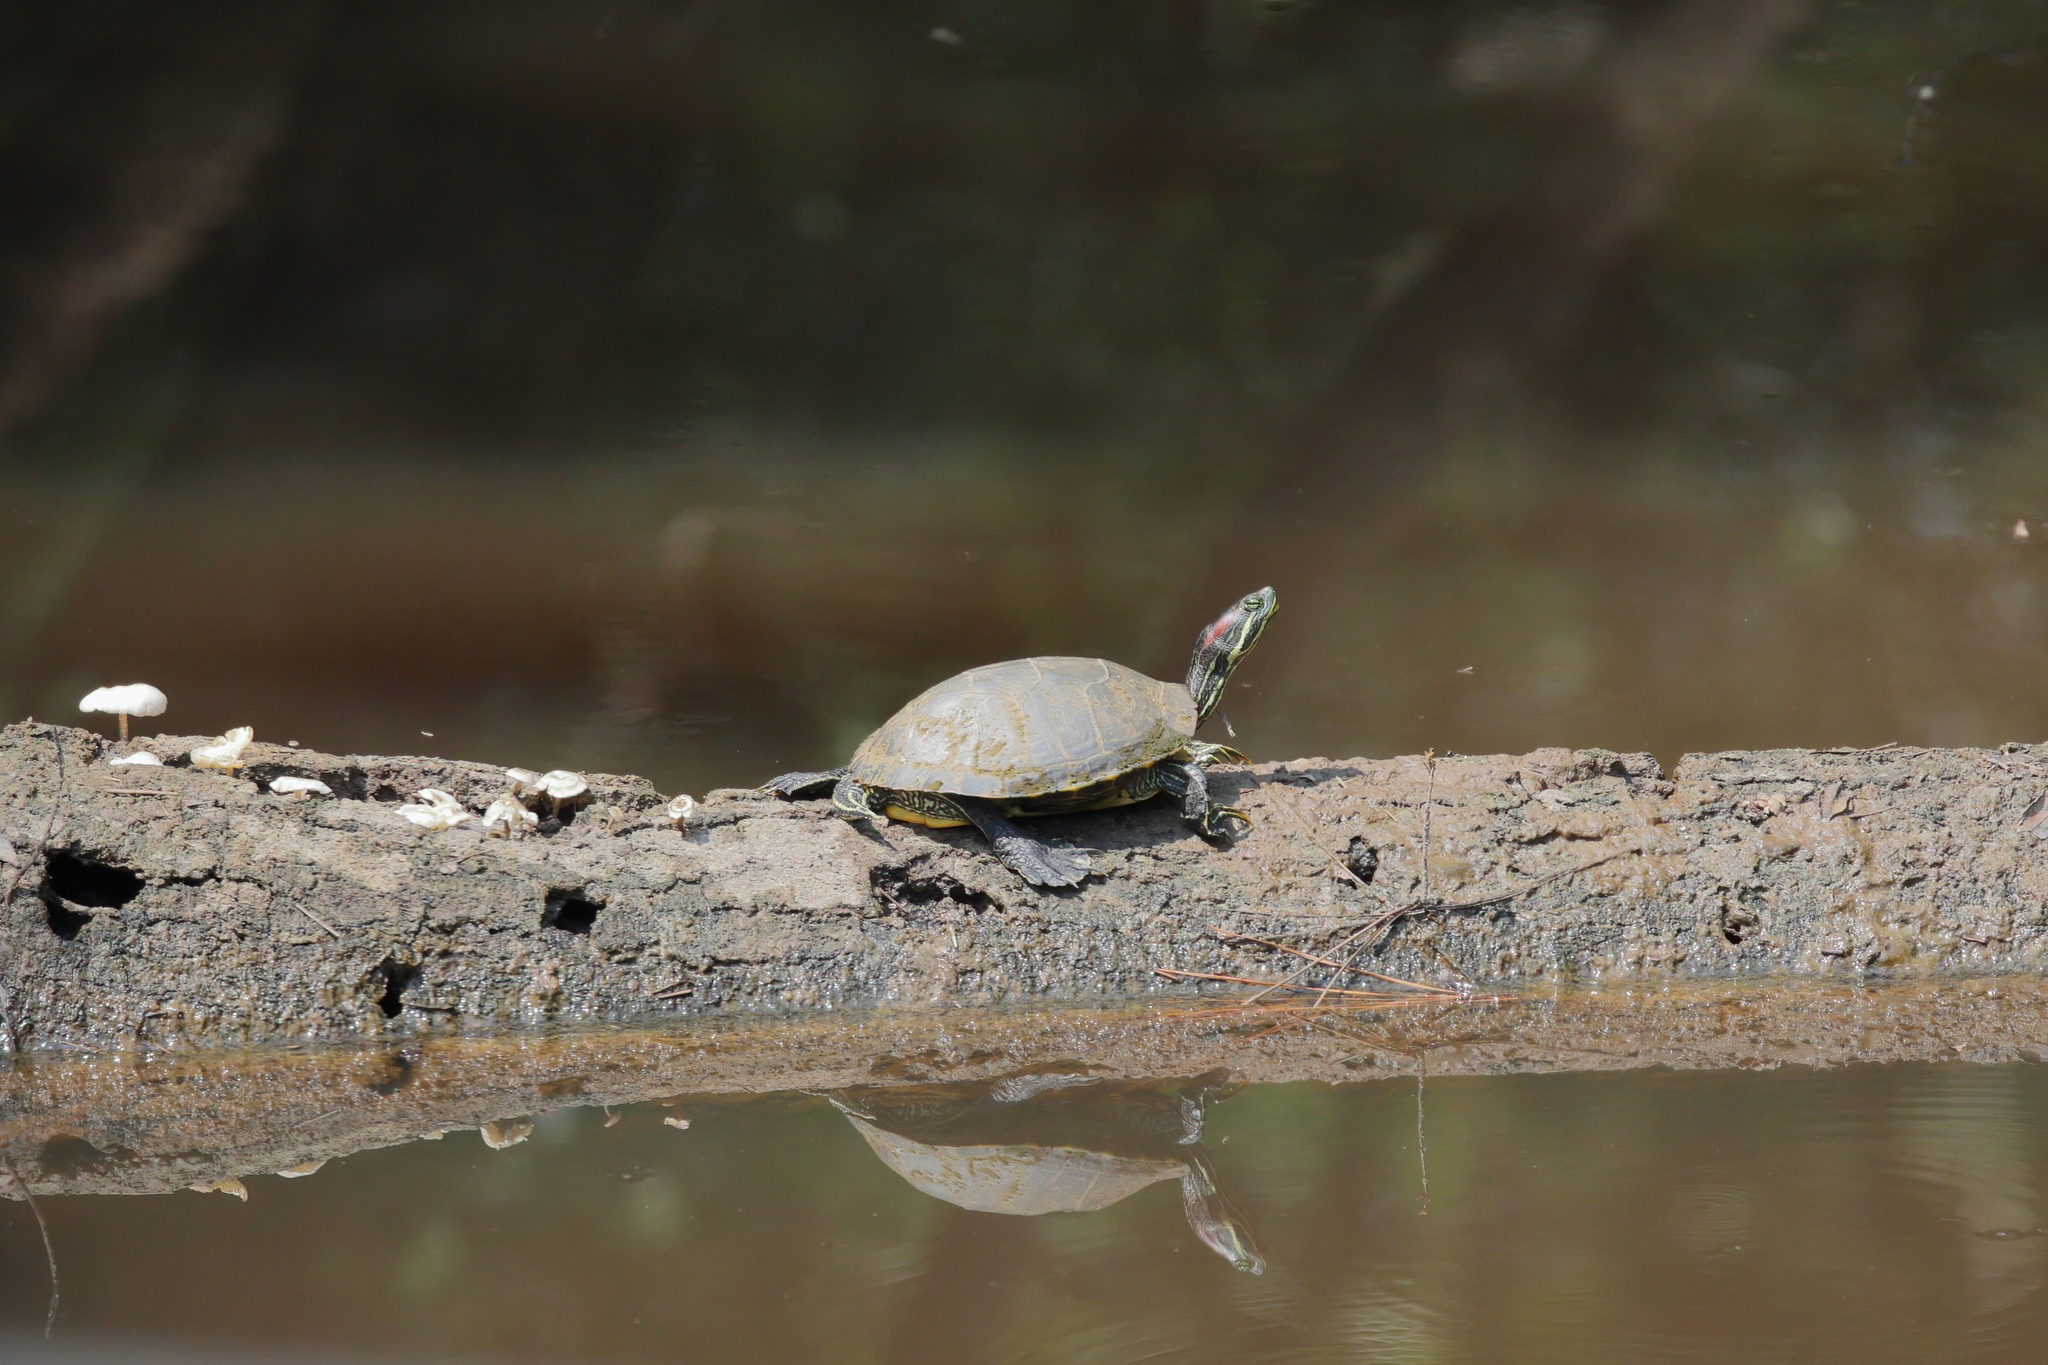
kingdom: Animalia
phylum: Chordata
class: Testudines
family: Emydidae
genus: Trachemys
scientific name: Trachemys scripta
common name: Slider
